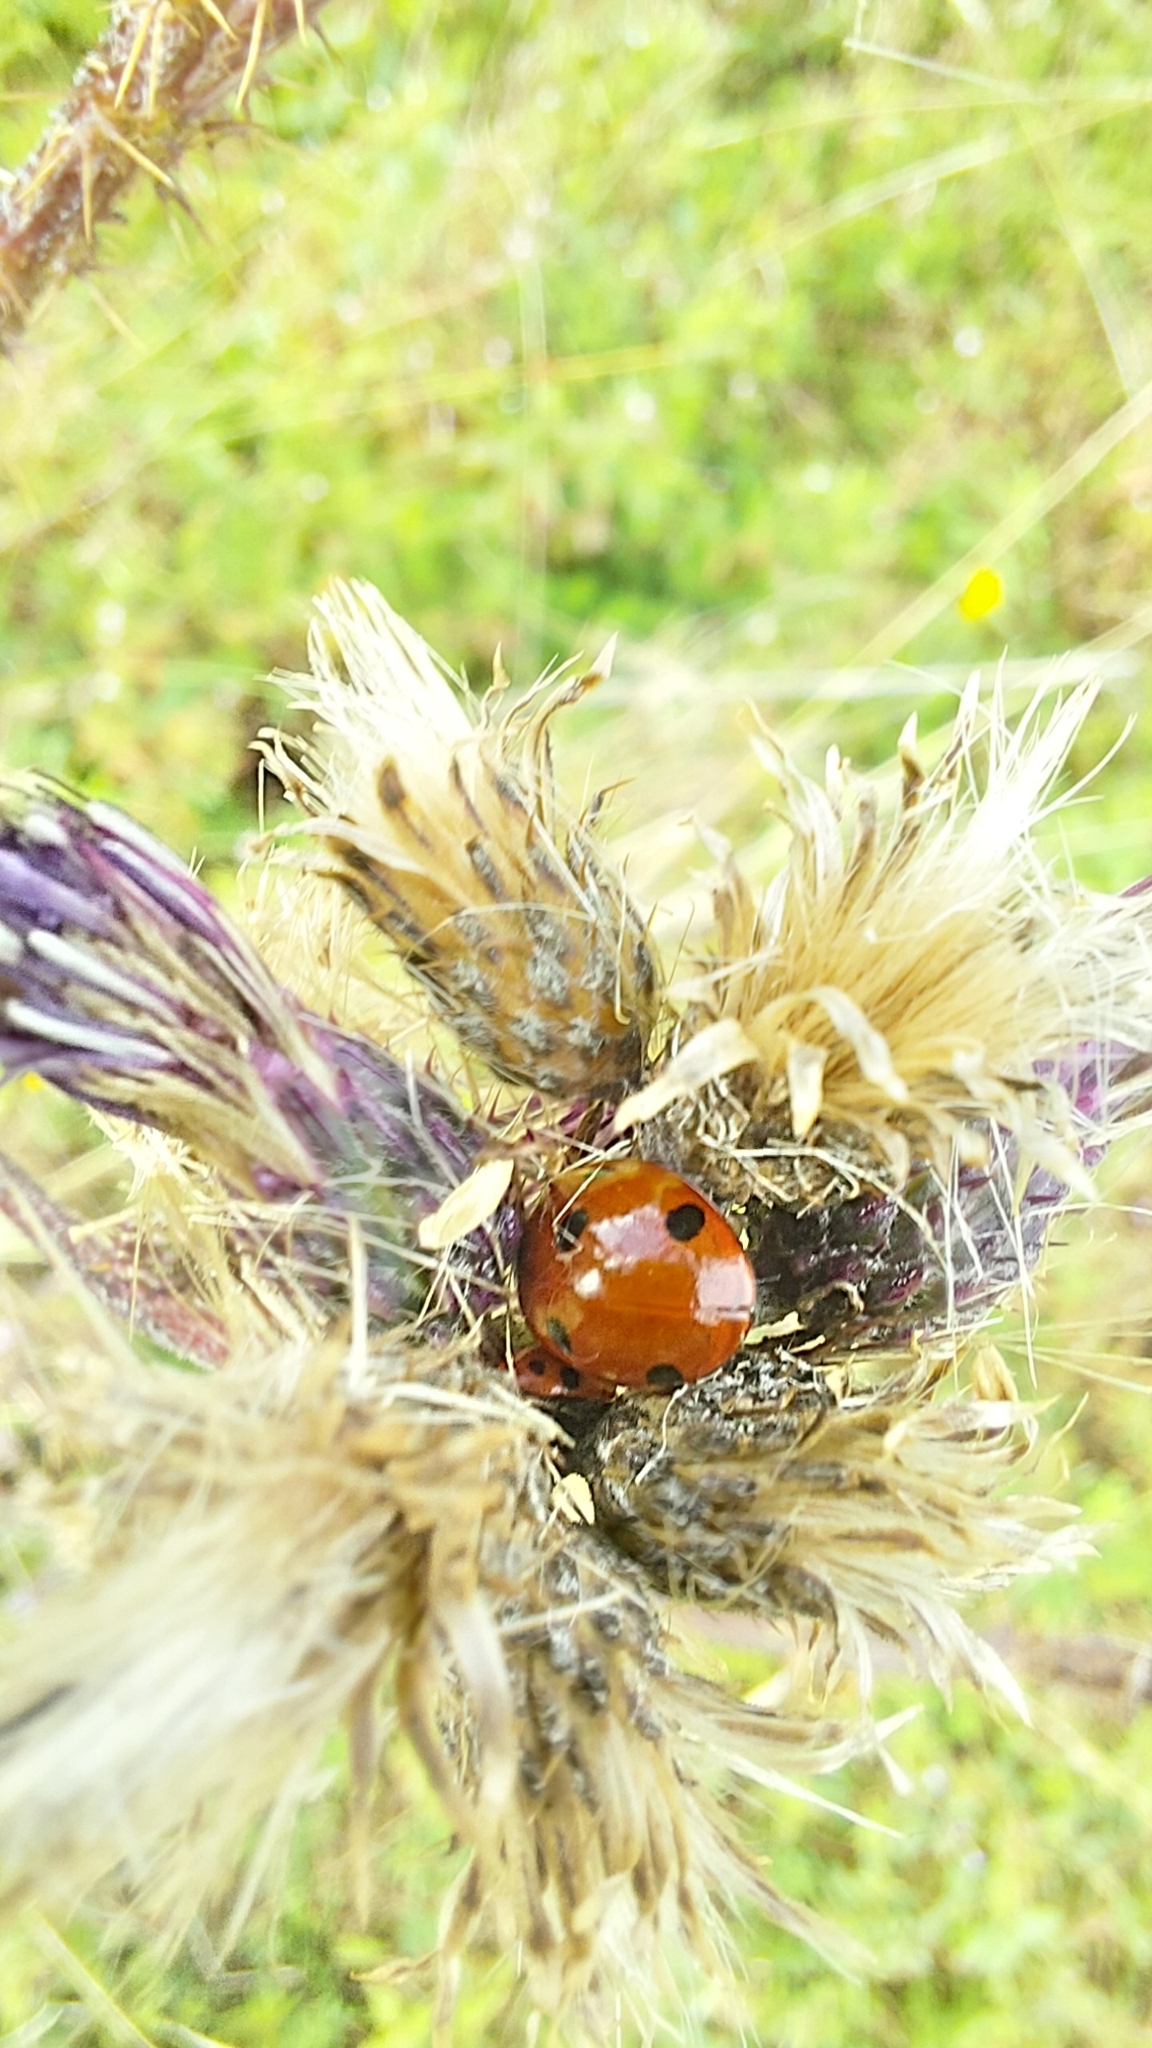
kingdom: Animalia
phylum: Arthropoda
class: Insecta
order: Coleoptera
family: Coccinellidae
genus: Coccinella
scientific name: Coccinella septempunctata
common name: Sevenspotted lady beetle
